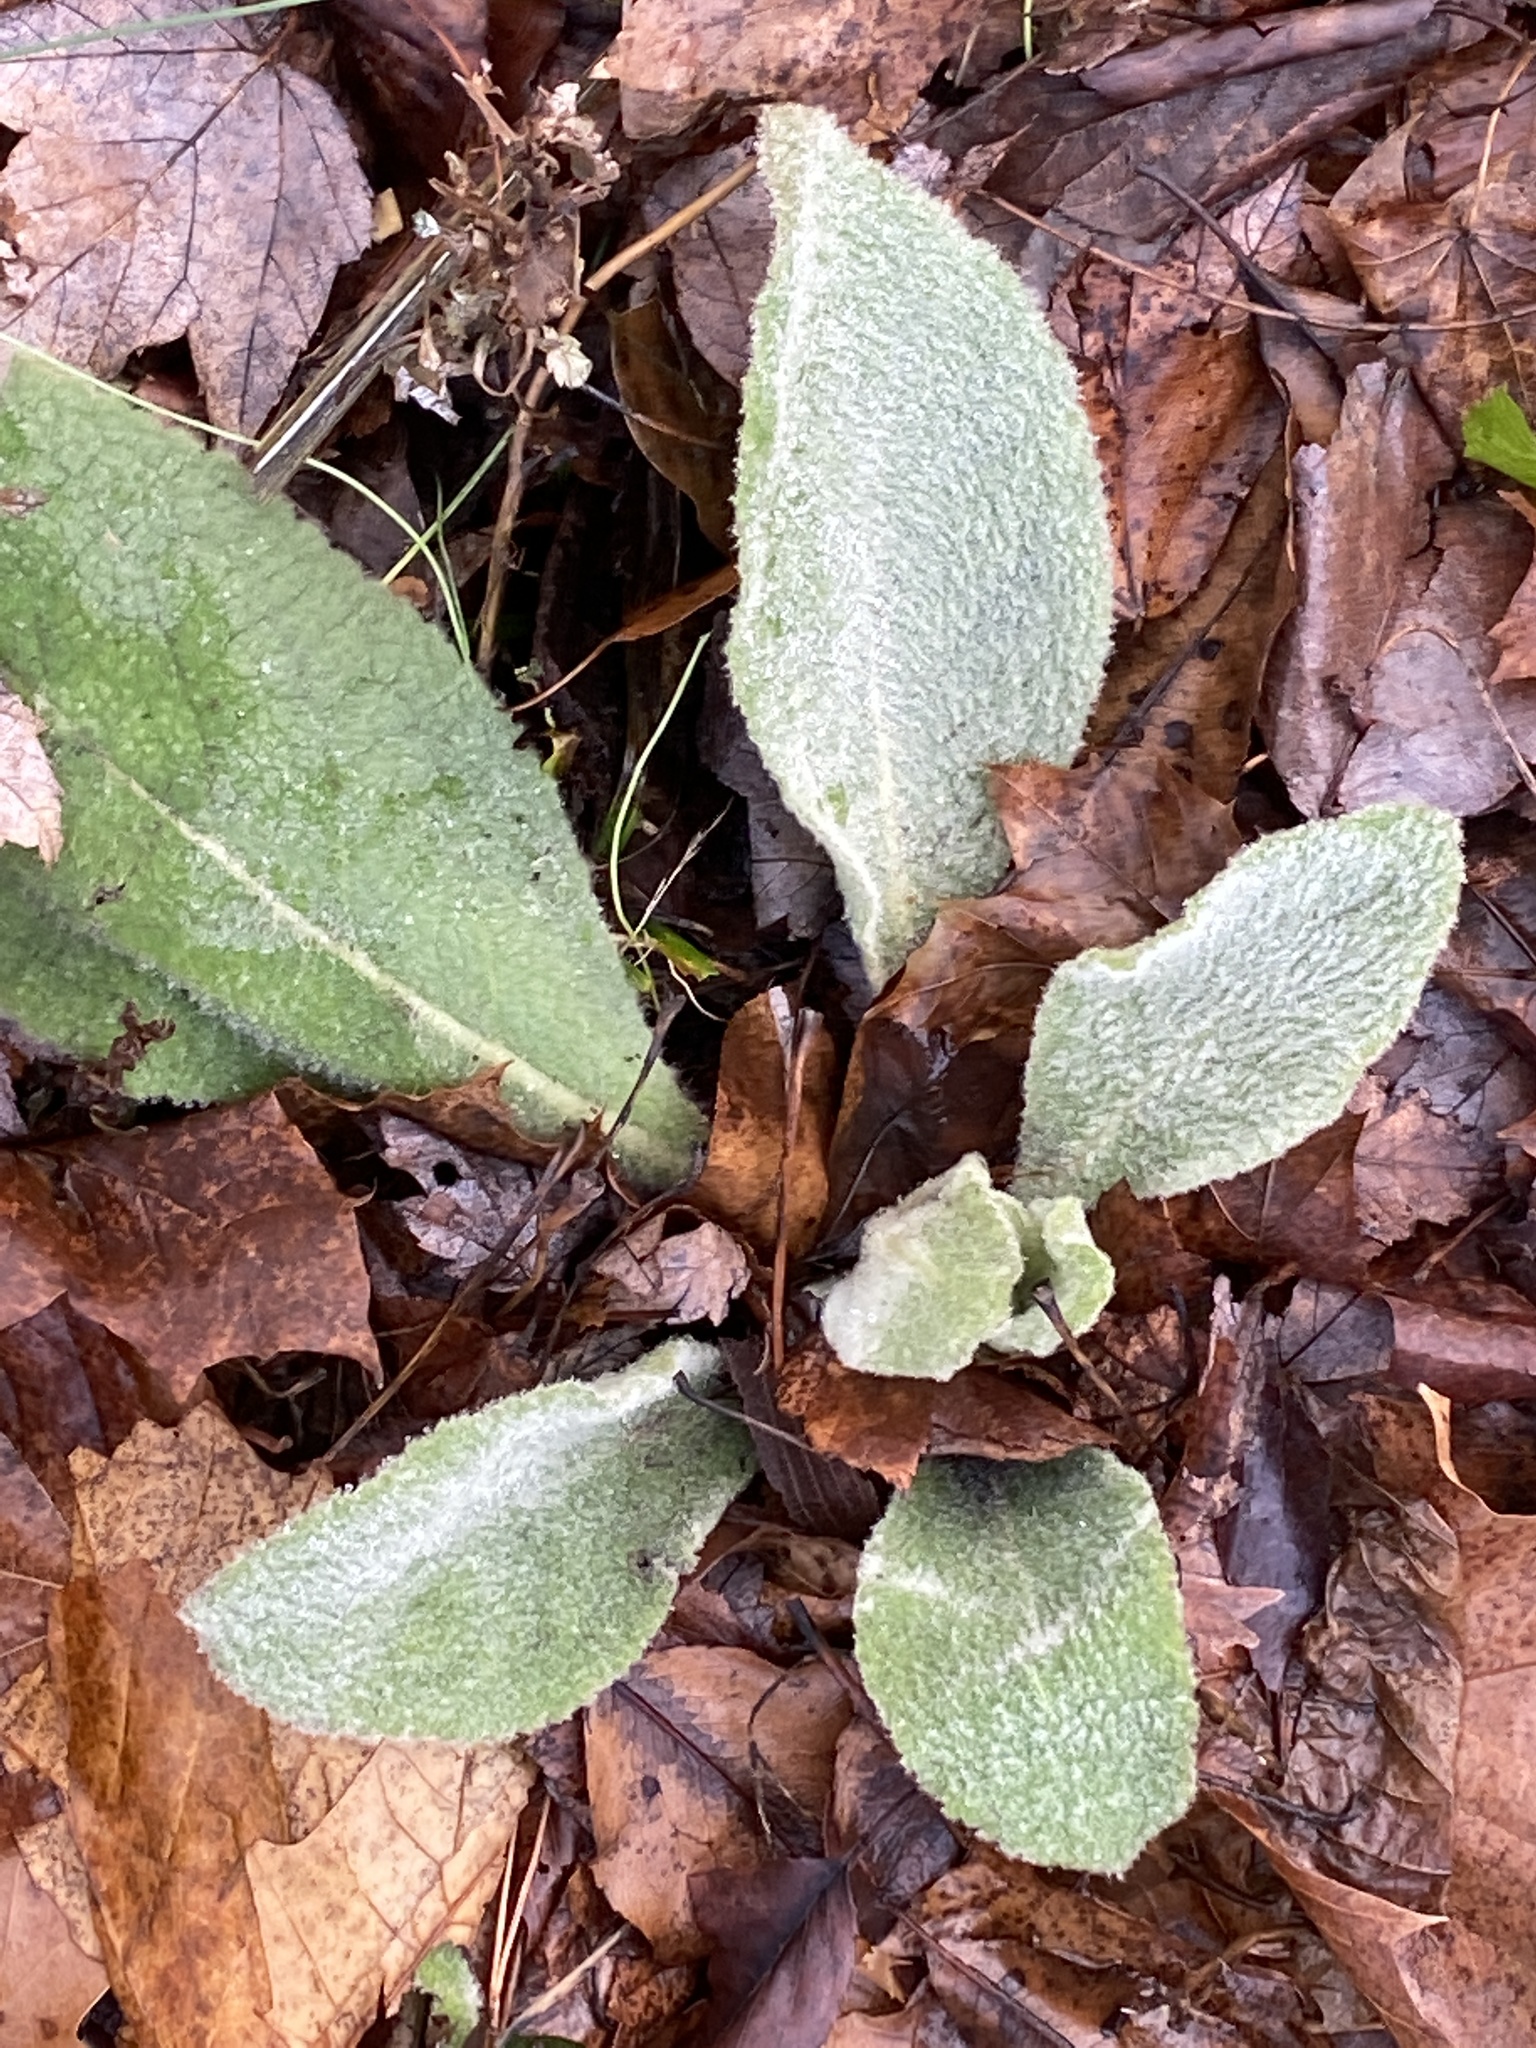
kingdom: Plantae
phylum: Tracheophyta
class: Magnoliopsida
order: Lamiales
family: Scrophulariaceae
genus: Verbascum
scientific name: Verbascum thapsus
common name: Common mullein
